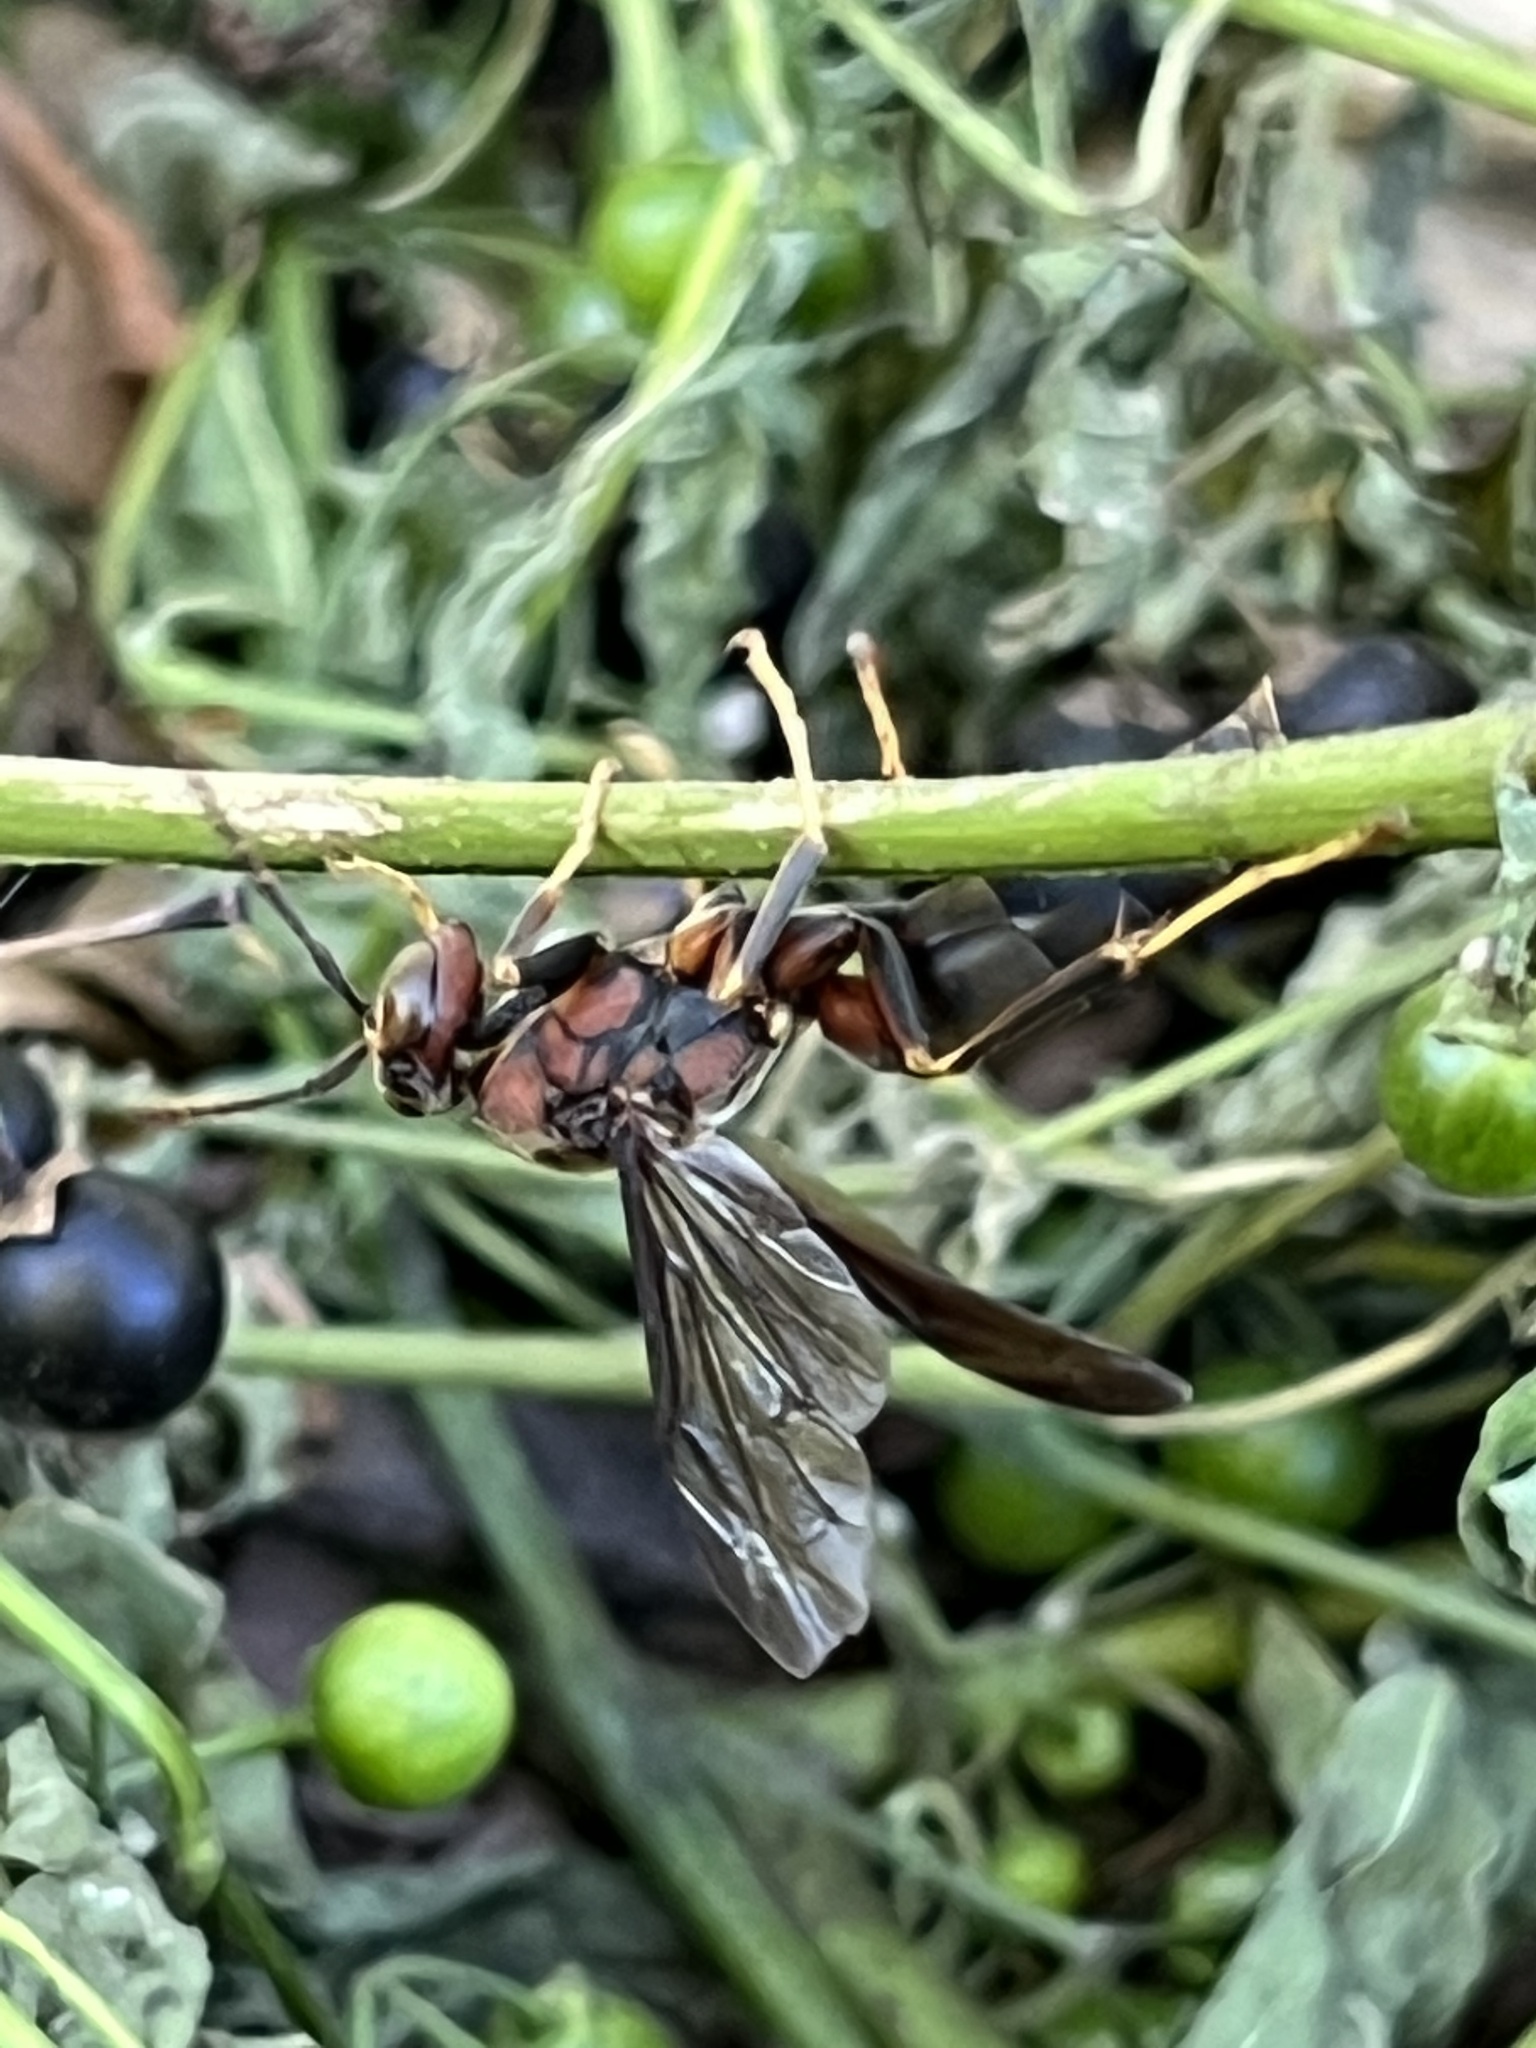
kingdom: Animalia
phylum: Arthropoda
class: Insecta
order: Hymenoptera
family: Eumenidae
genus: Polistes
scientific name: Polistes metricus
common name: Metric paper wasp
